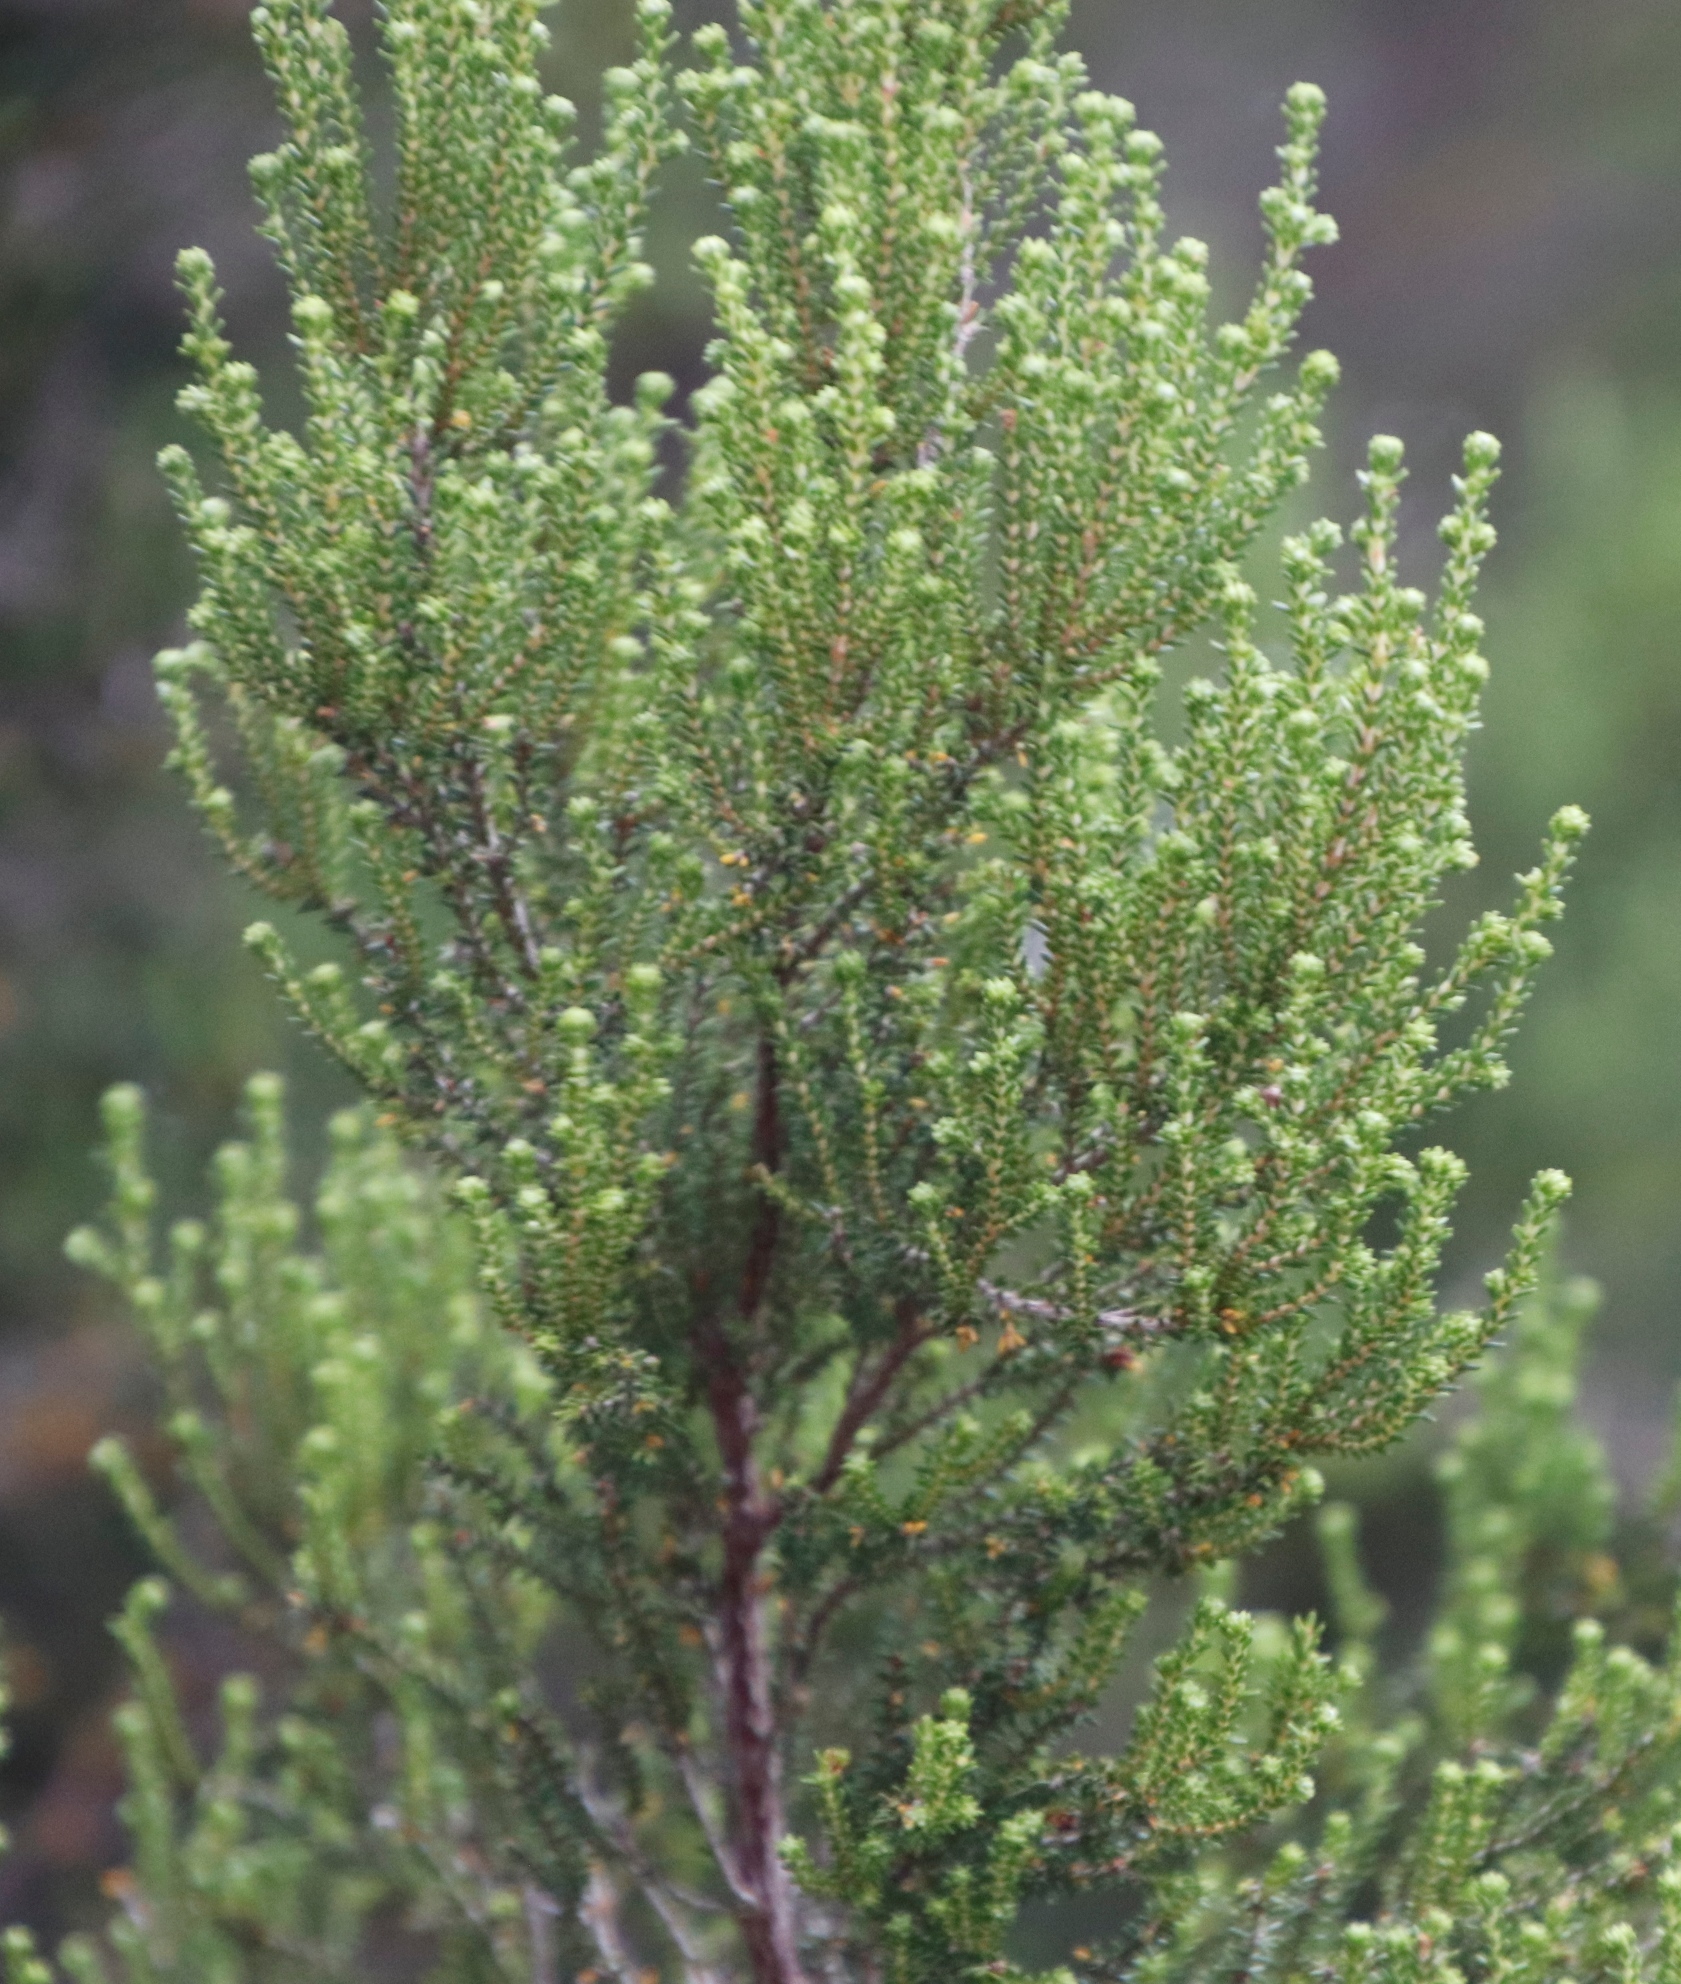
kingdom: Plantae
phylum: Tracheophyta
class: Magnoliopsida
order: Ericales
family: Ericaceae
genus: Erica
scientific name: Erica tristis
